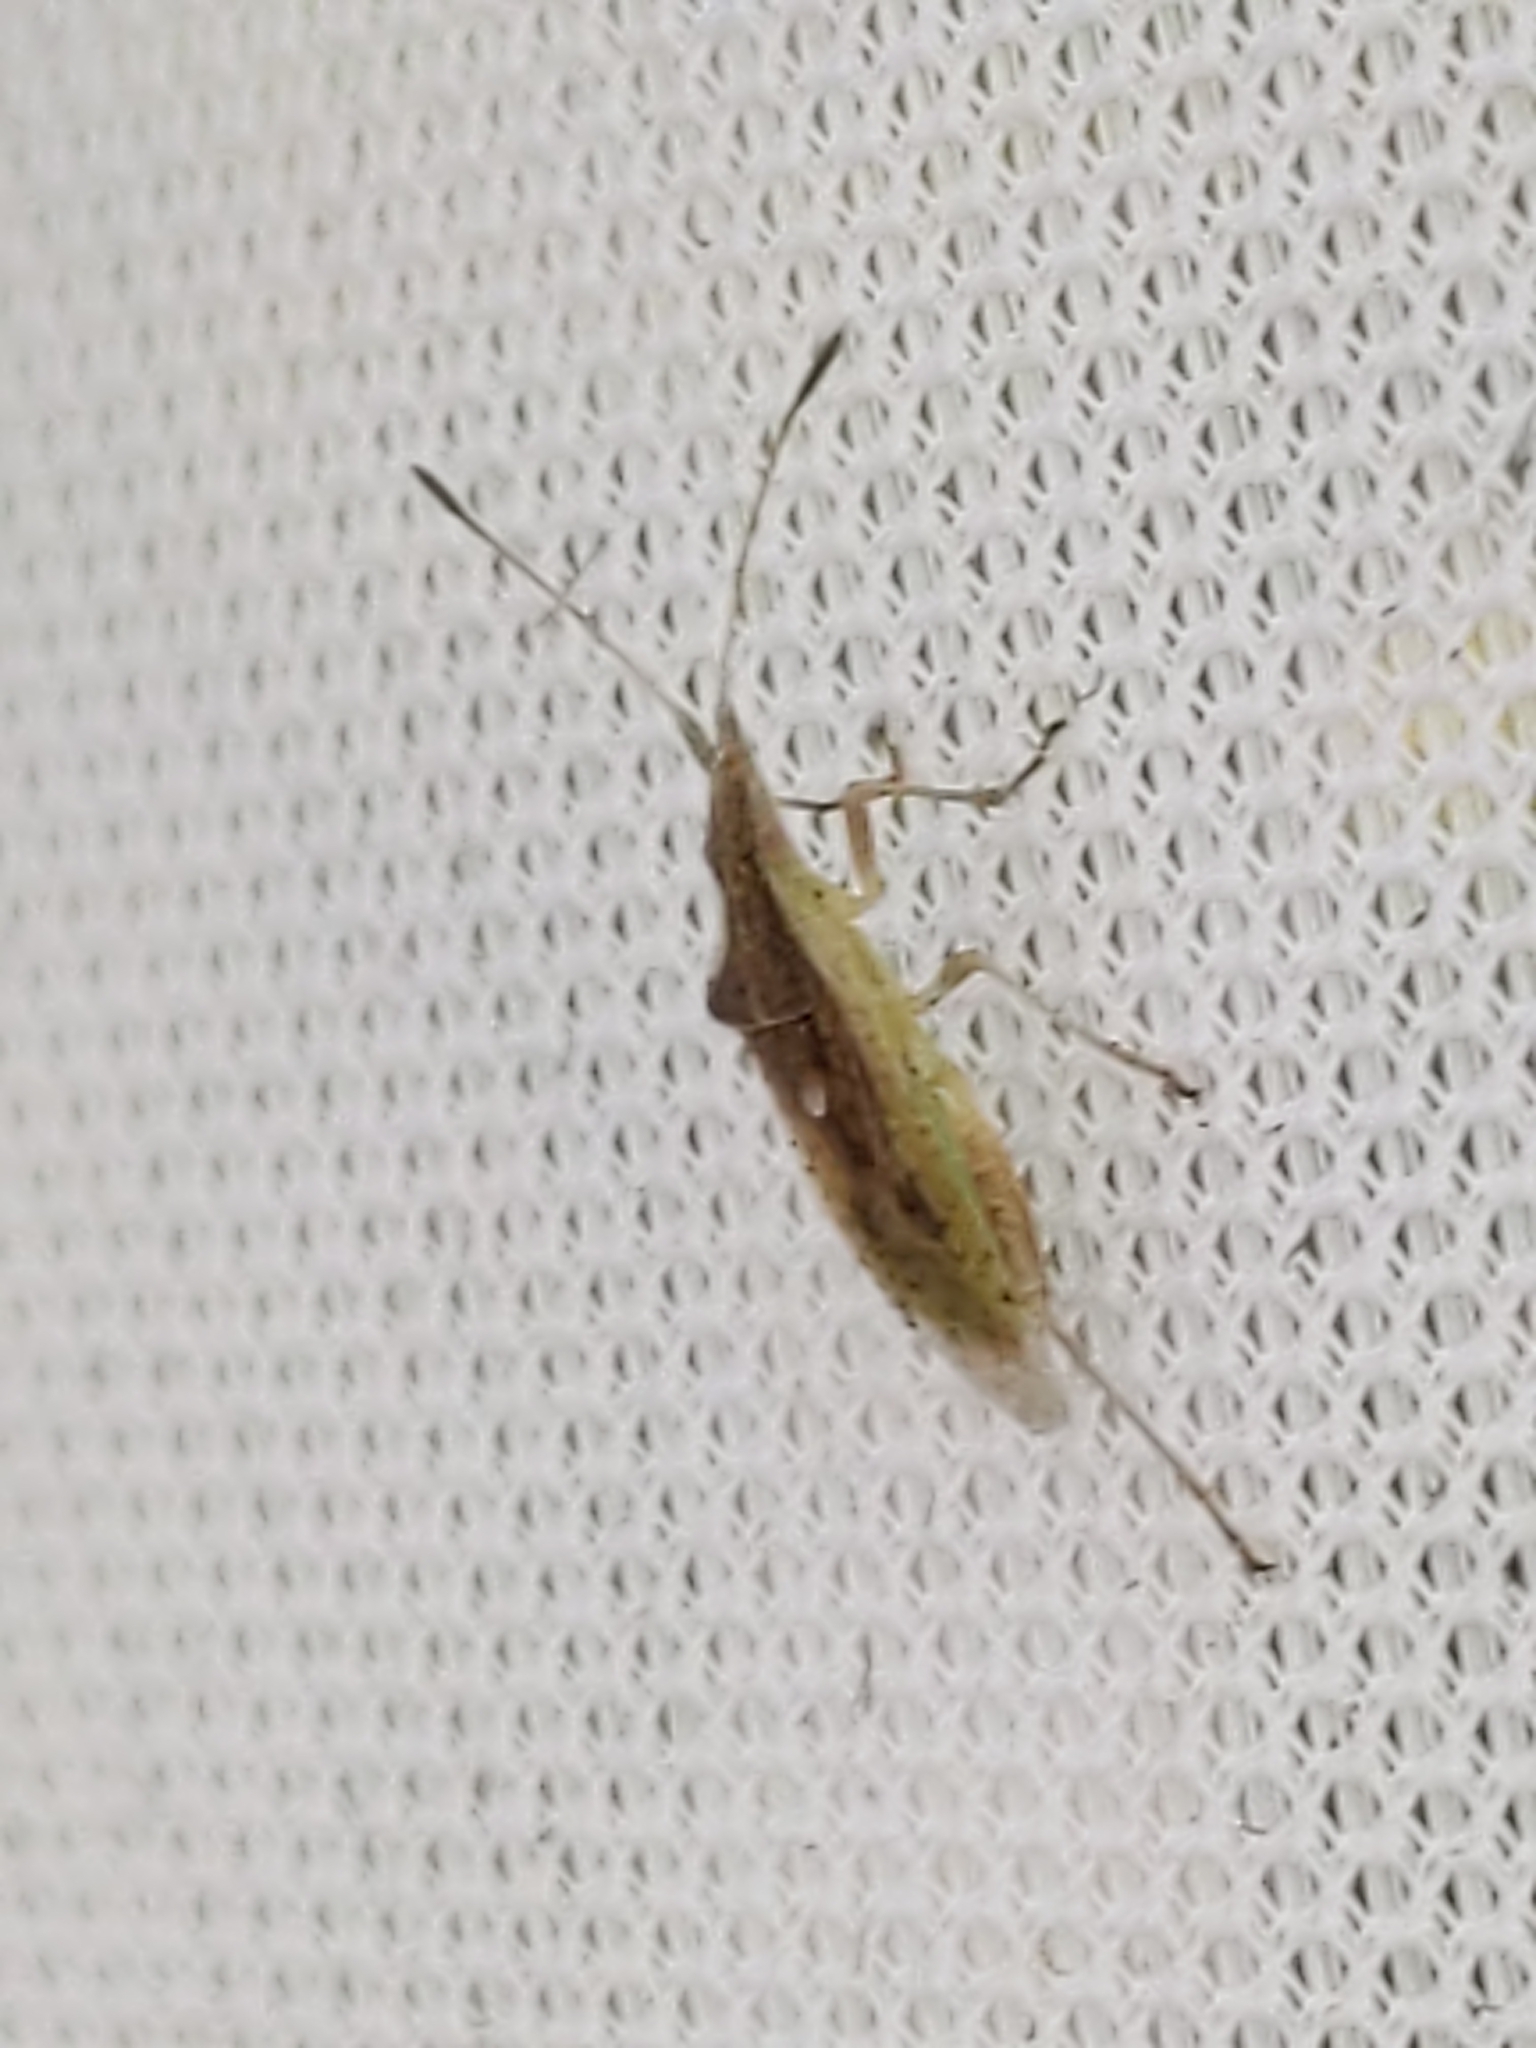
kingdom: Animalia
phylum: Arthropoda
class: Insecta
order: Hemiptera
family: Rhopalidae
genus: Harmostes
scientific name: Harmostes reflexulus
